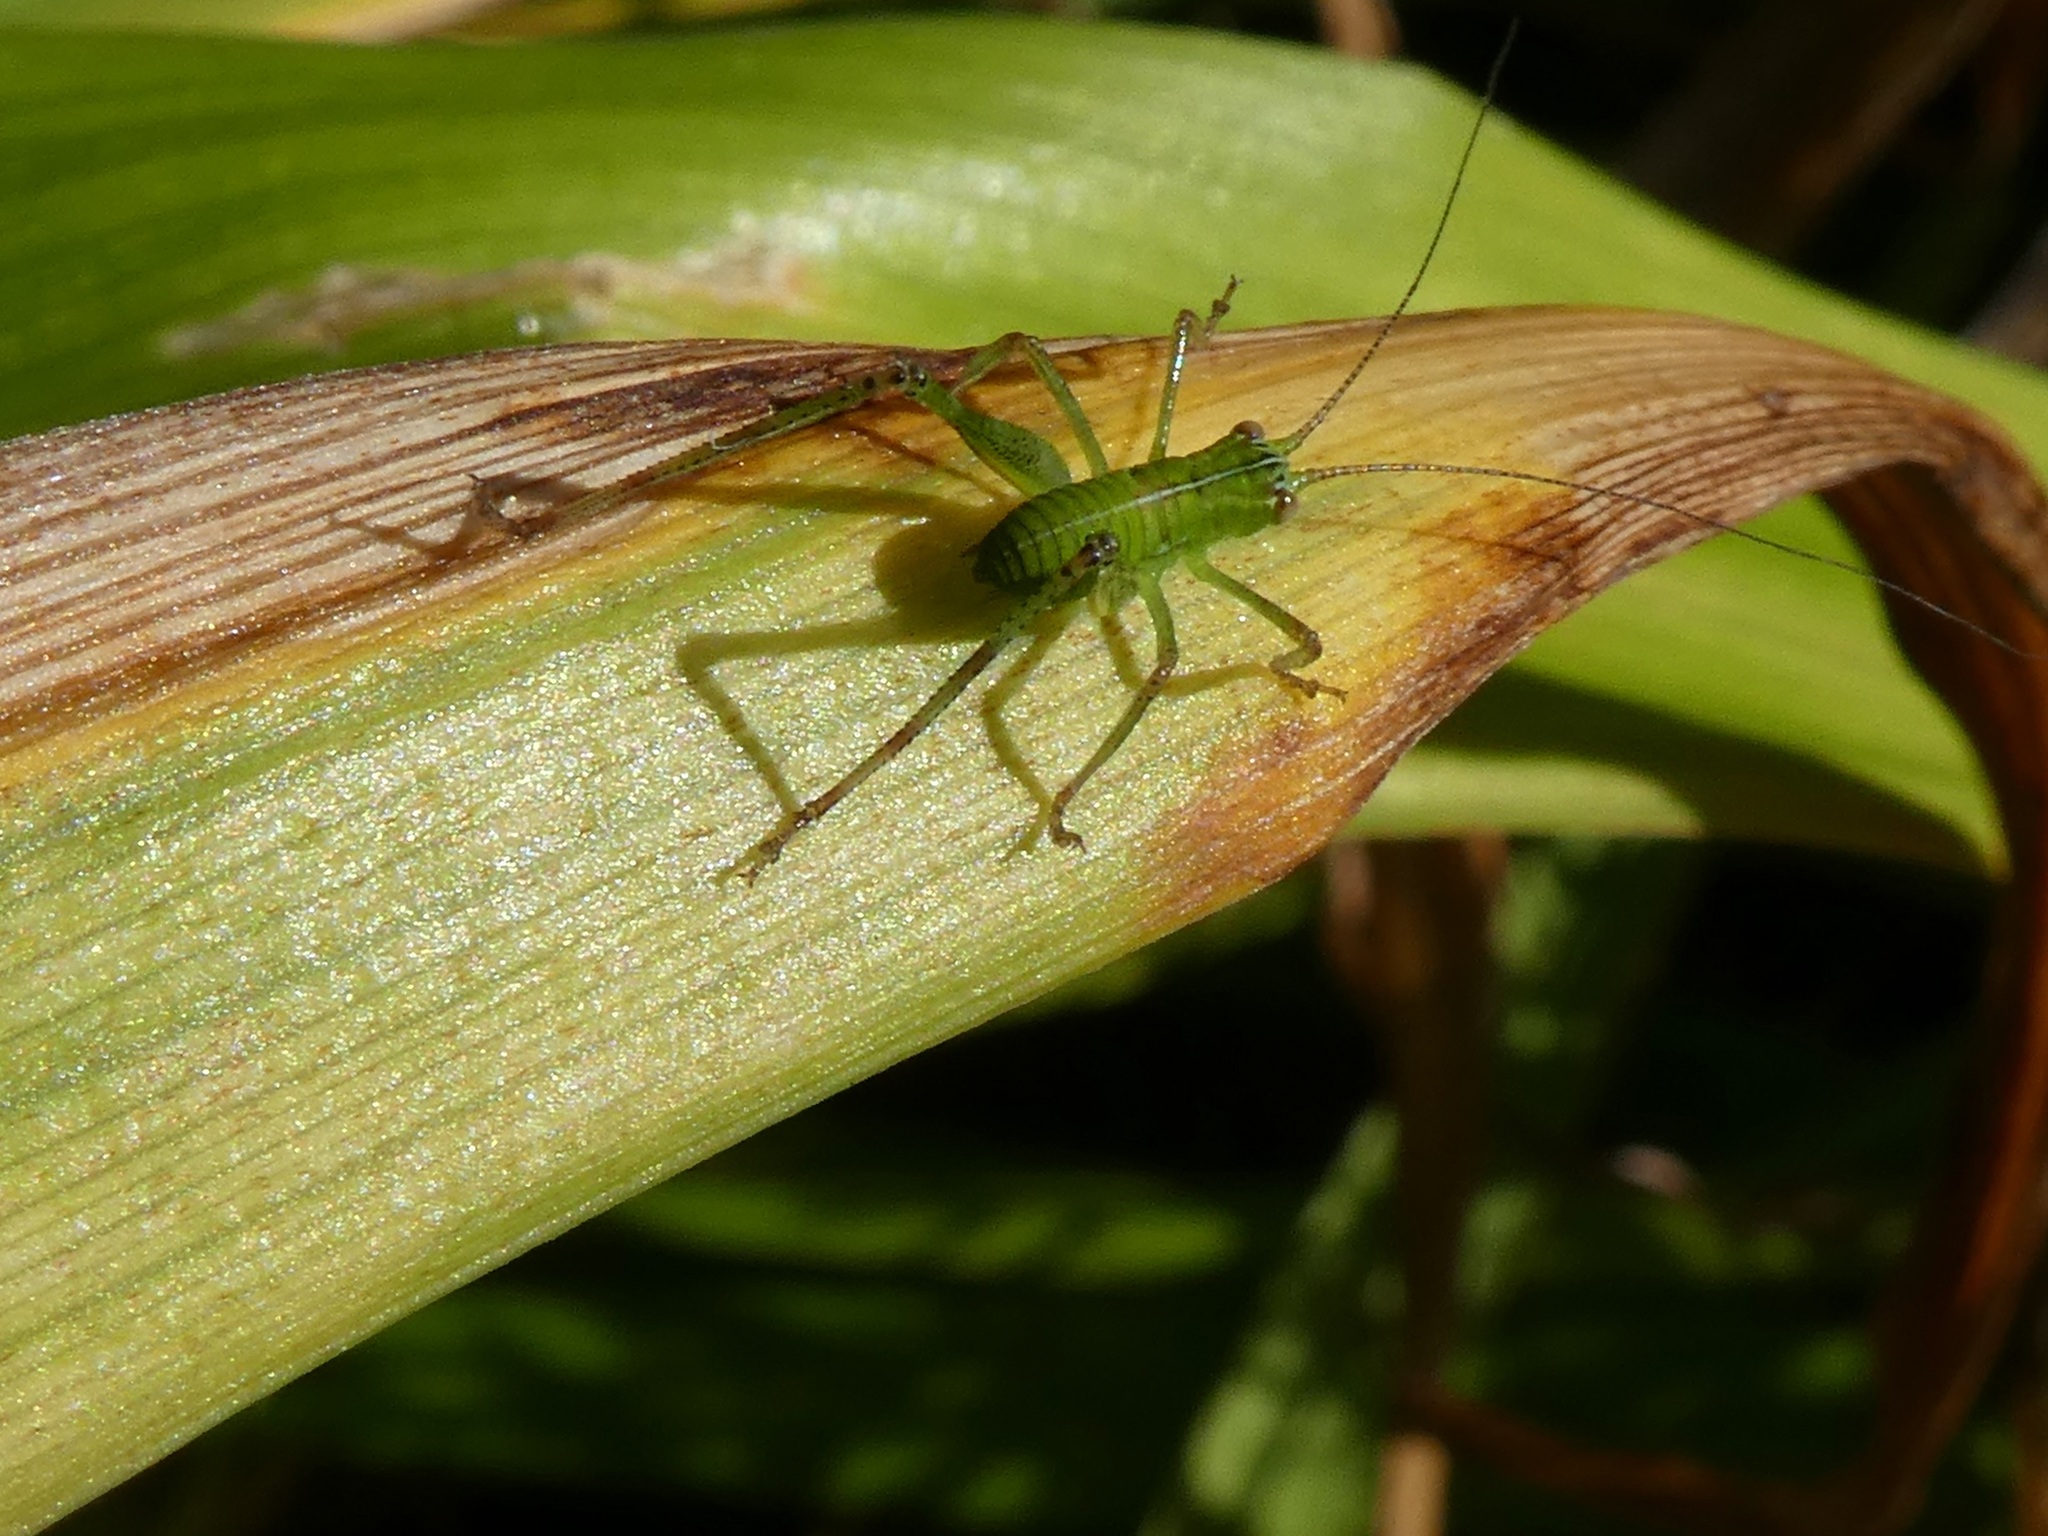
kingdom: Animalia
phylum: Arthropoda
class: Insecta
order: Orthoptera
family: Tettigoniidae
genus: Caedicia
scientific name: Caedicia simplex
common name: Common garden katydid
